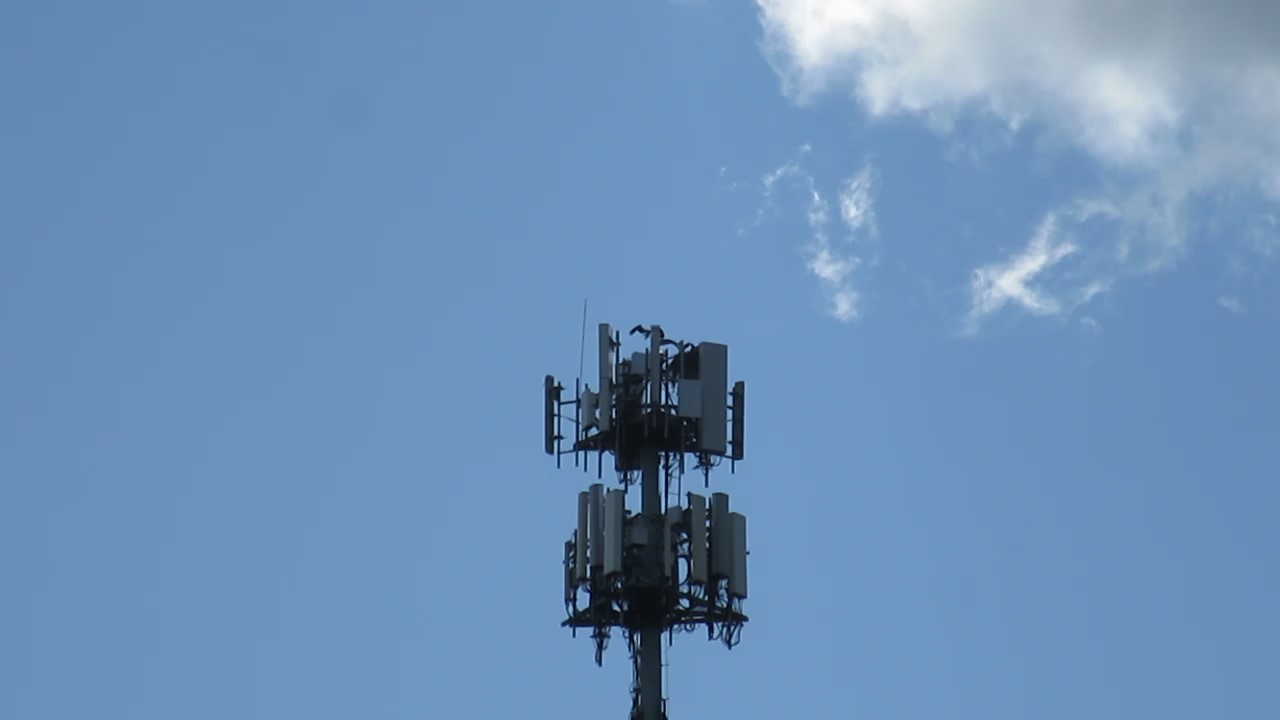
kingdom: Animalia
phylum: Chordata
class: Aves
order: Accipitriformes
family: Pandionidae
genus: Pandion
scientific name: Pandion haliaetus
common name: Osprey
